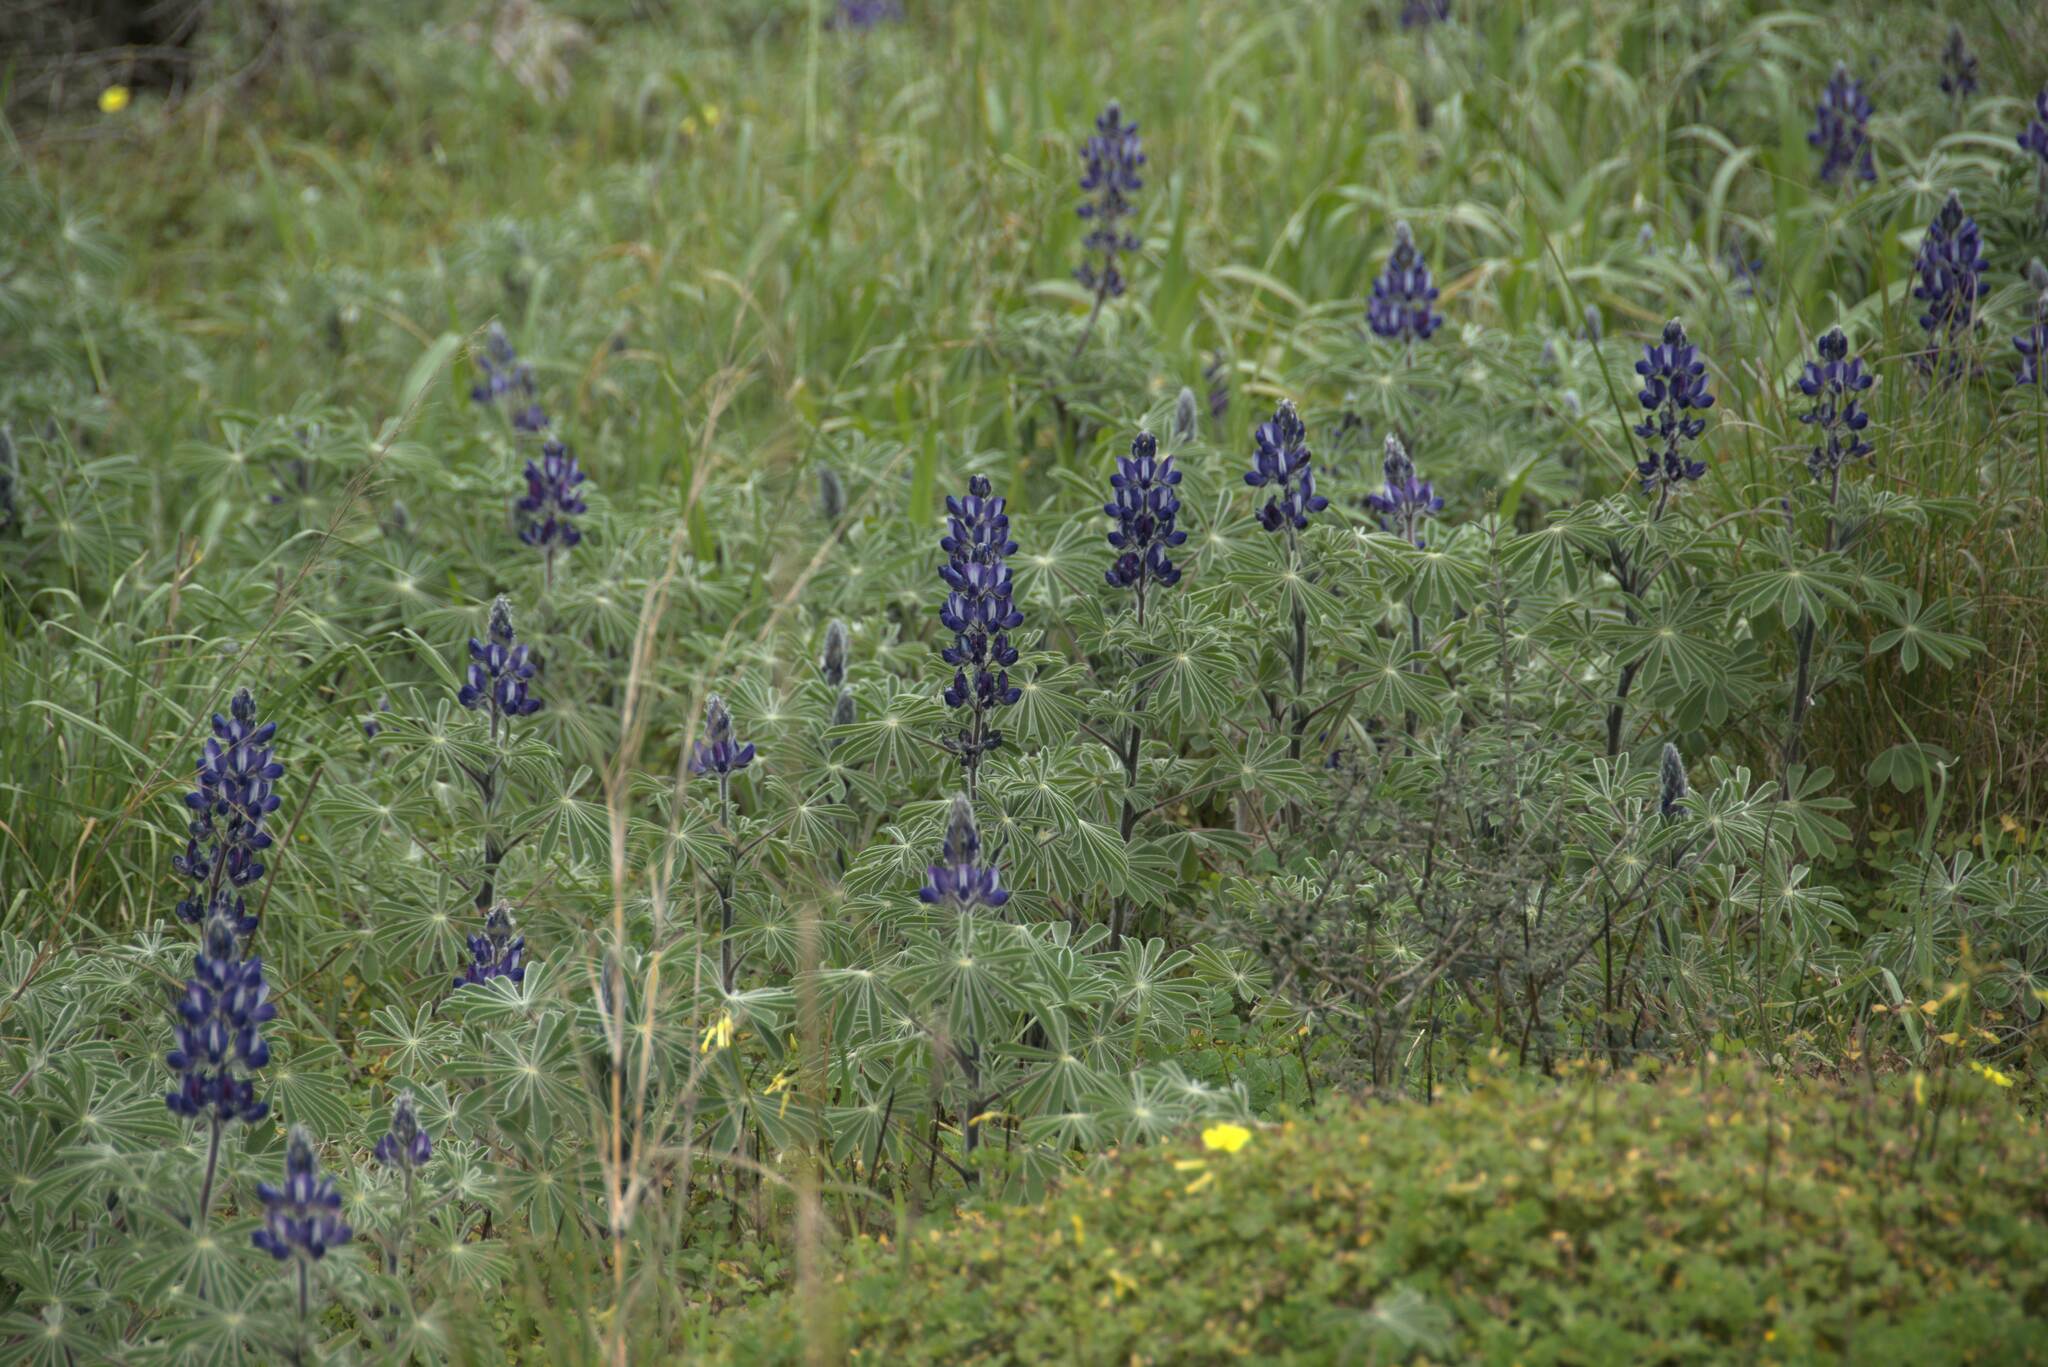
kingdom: Plantae
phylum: Tracheophyta
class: Magnoliopsida
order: Fabales
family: Fabaceae
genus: Lupinus
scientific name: Lupinus pilosus
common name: Blue lupine
